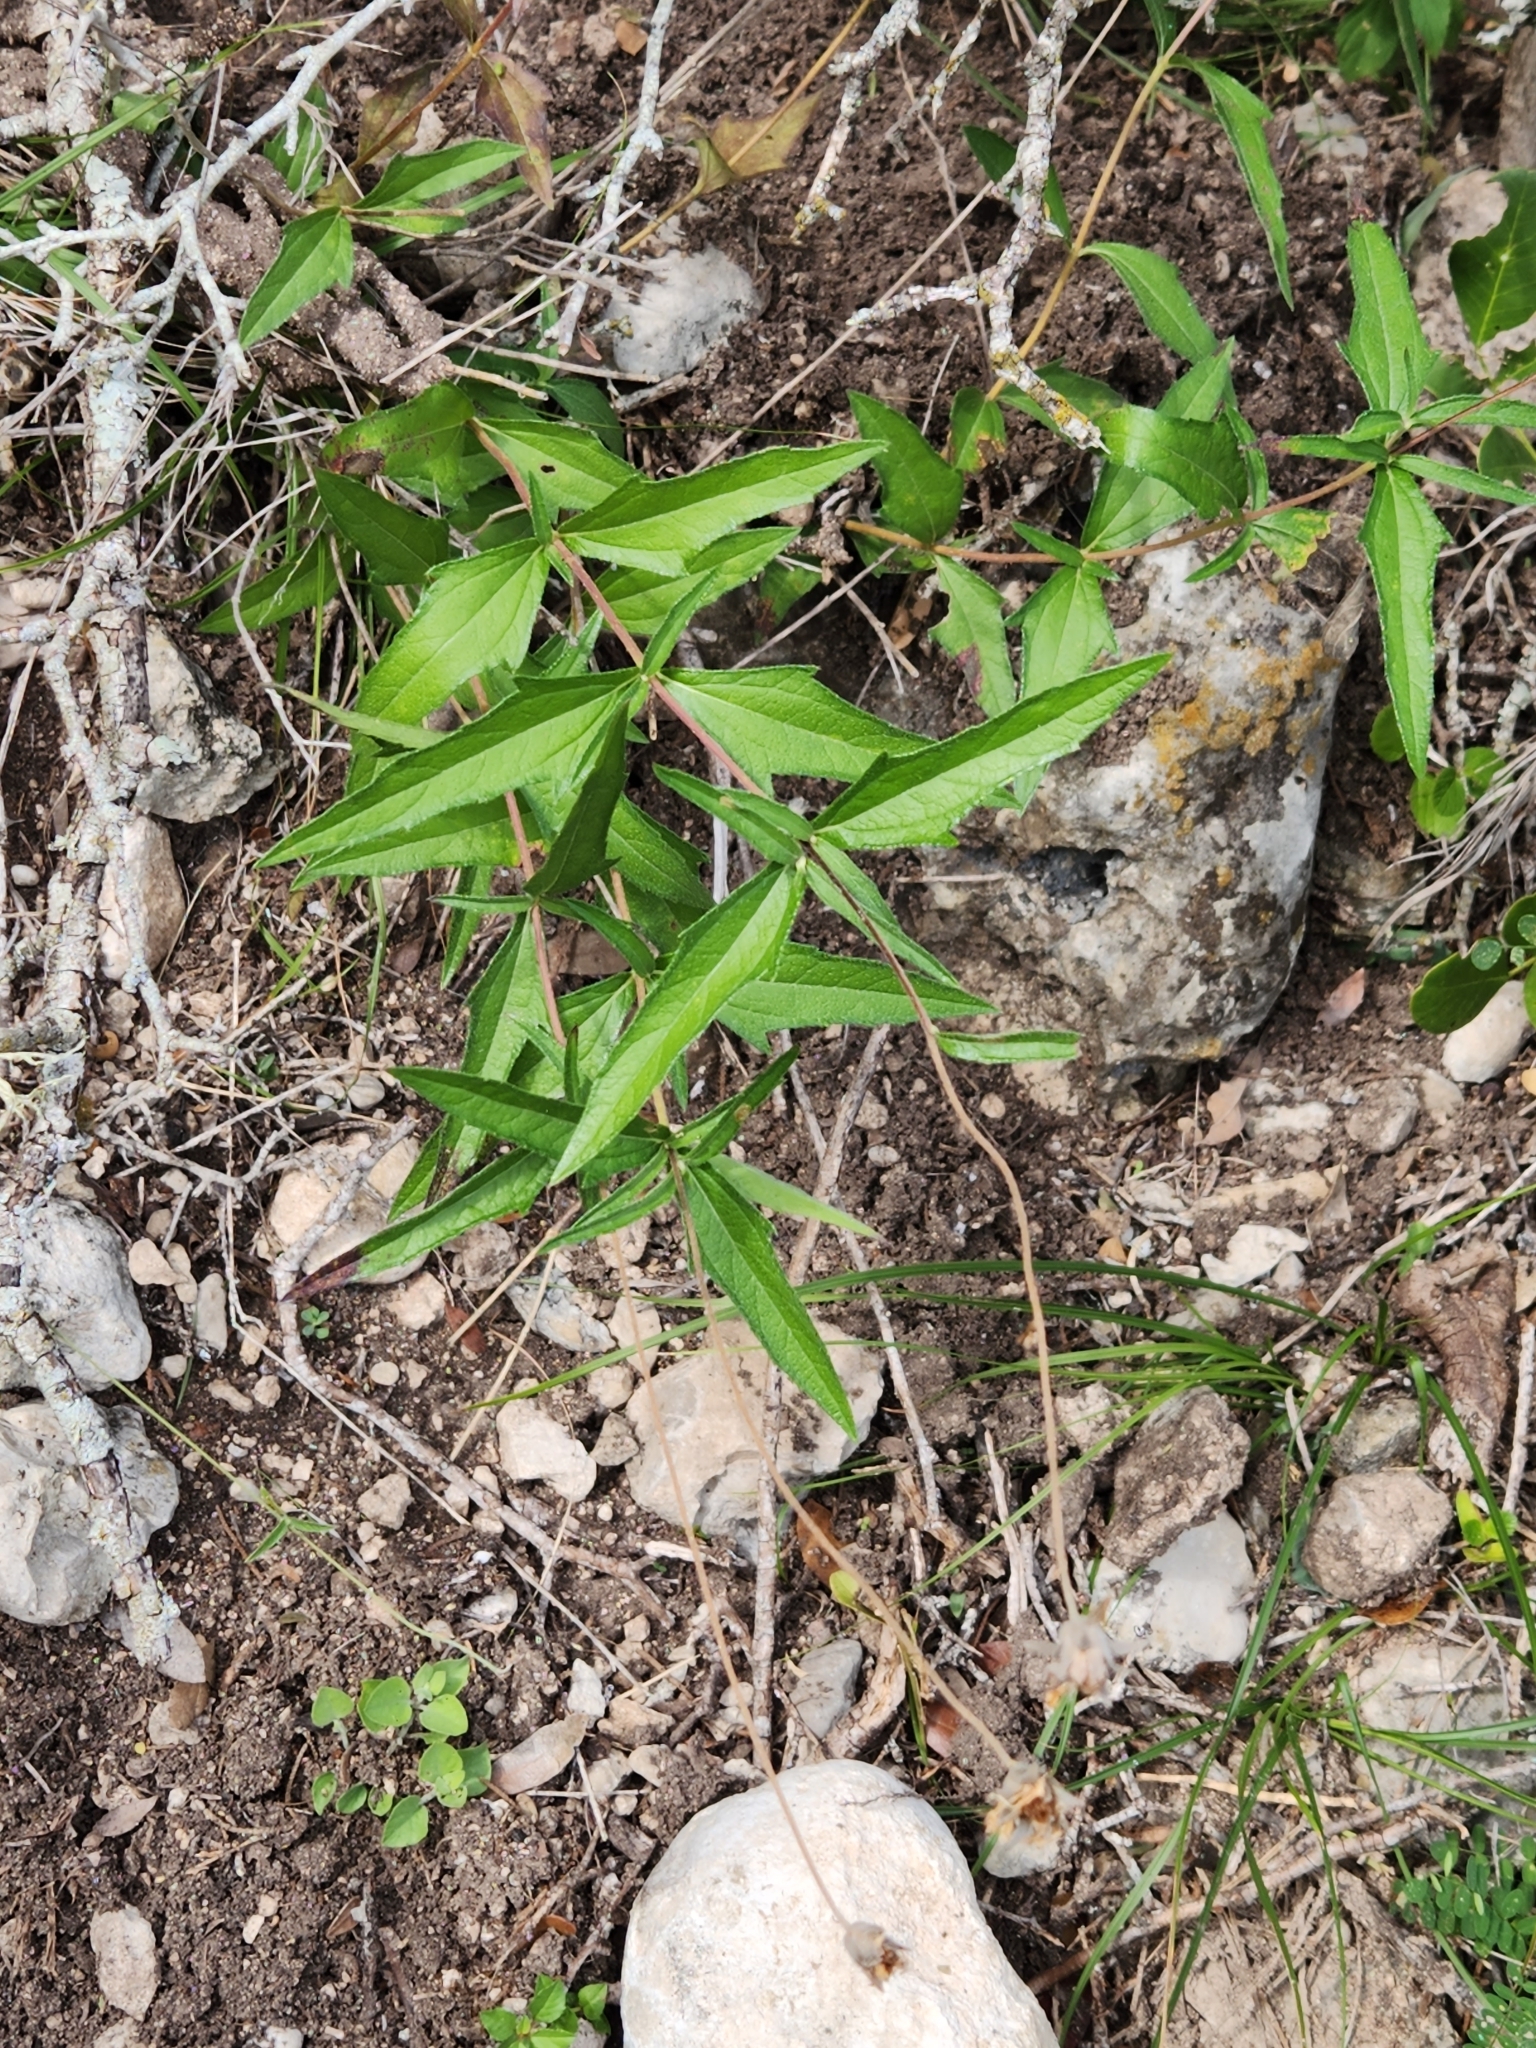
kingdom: Plantae
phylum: Tracheophyta
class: Magnoliopsida
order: Asterales
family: Asteraceae
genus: Wedelia
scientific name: Wedelia acapulcensis
